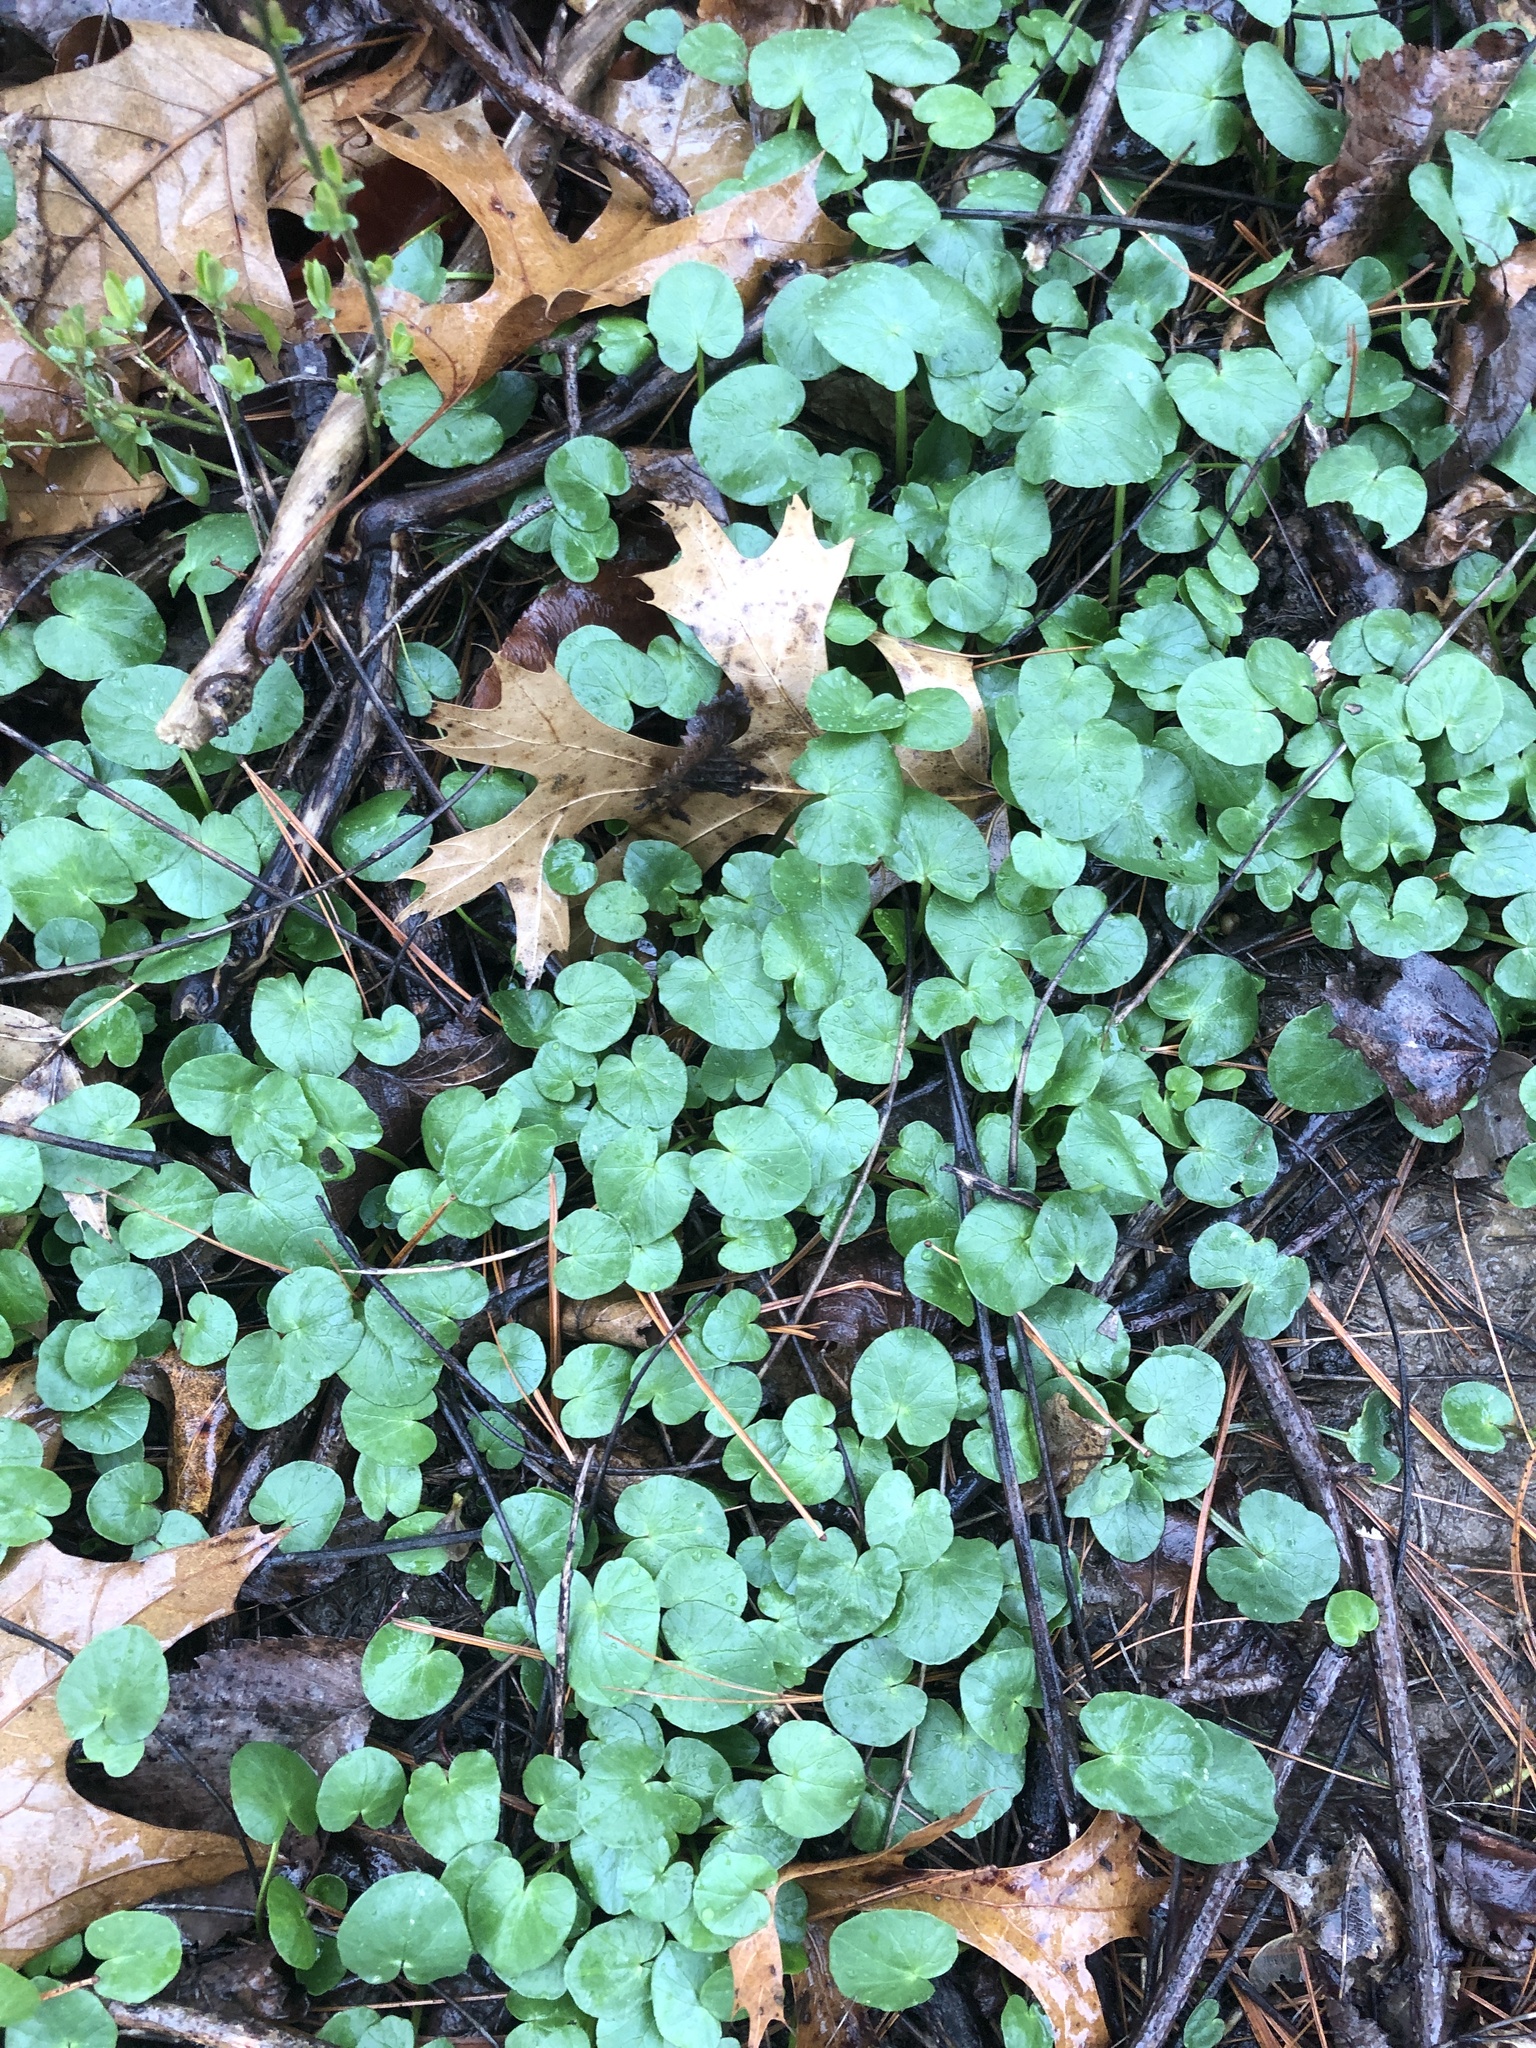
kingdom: Plantae
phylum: Tracheophyta
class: Magnoliopsida
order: Ranunculales
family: Ranunculaceae
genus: Ficaria
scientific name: Ficaria verna
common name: Lesser celandine
